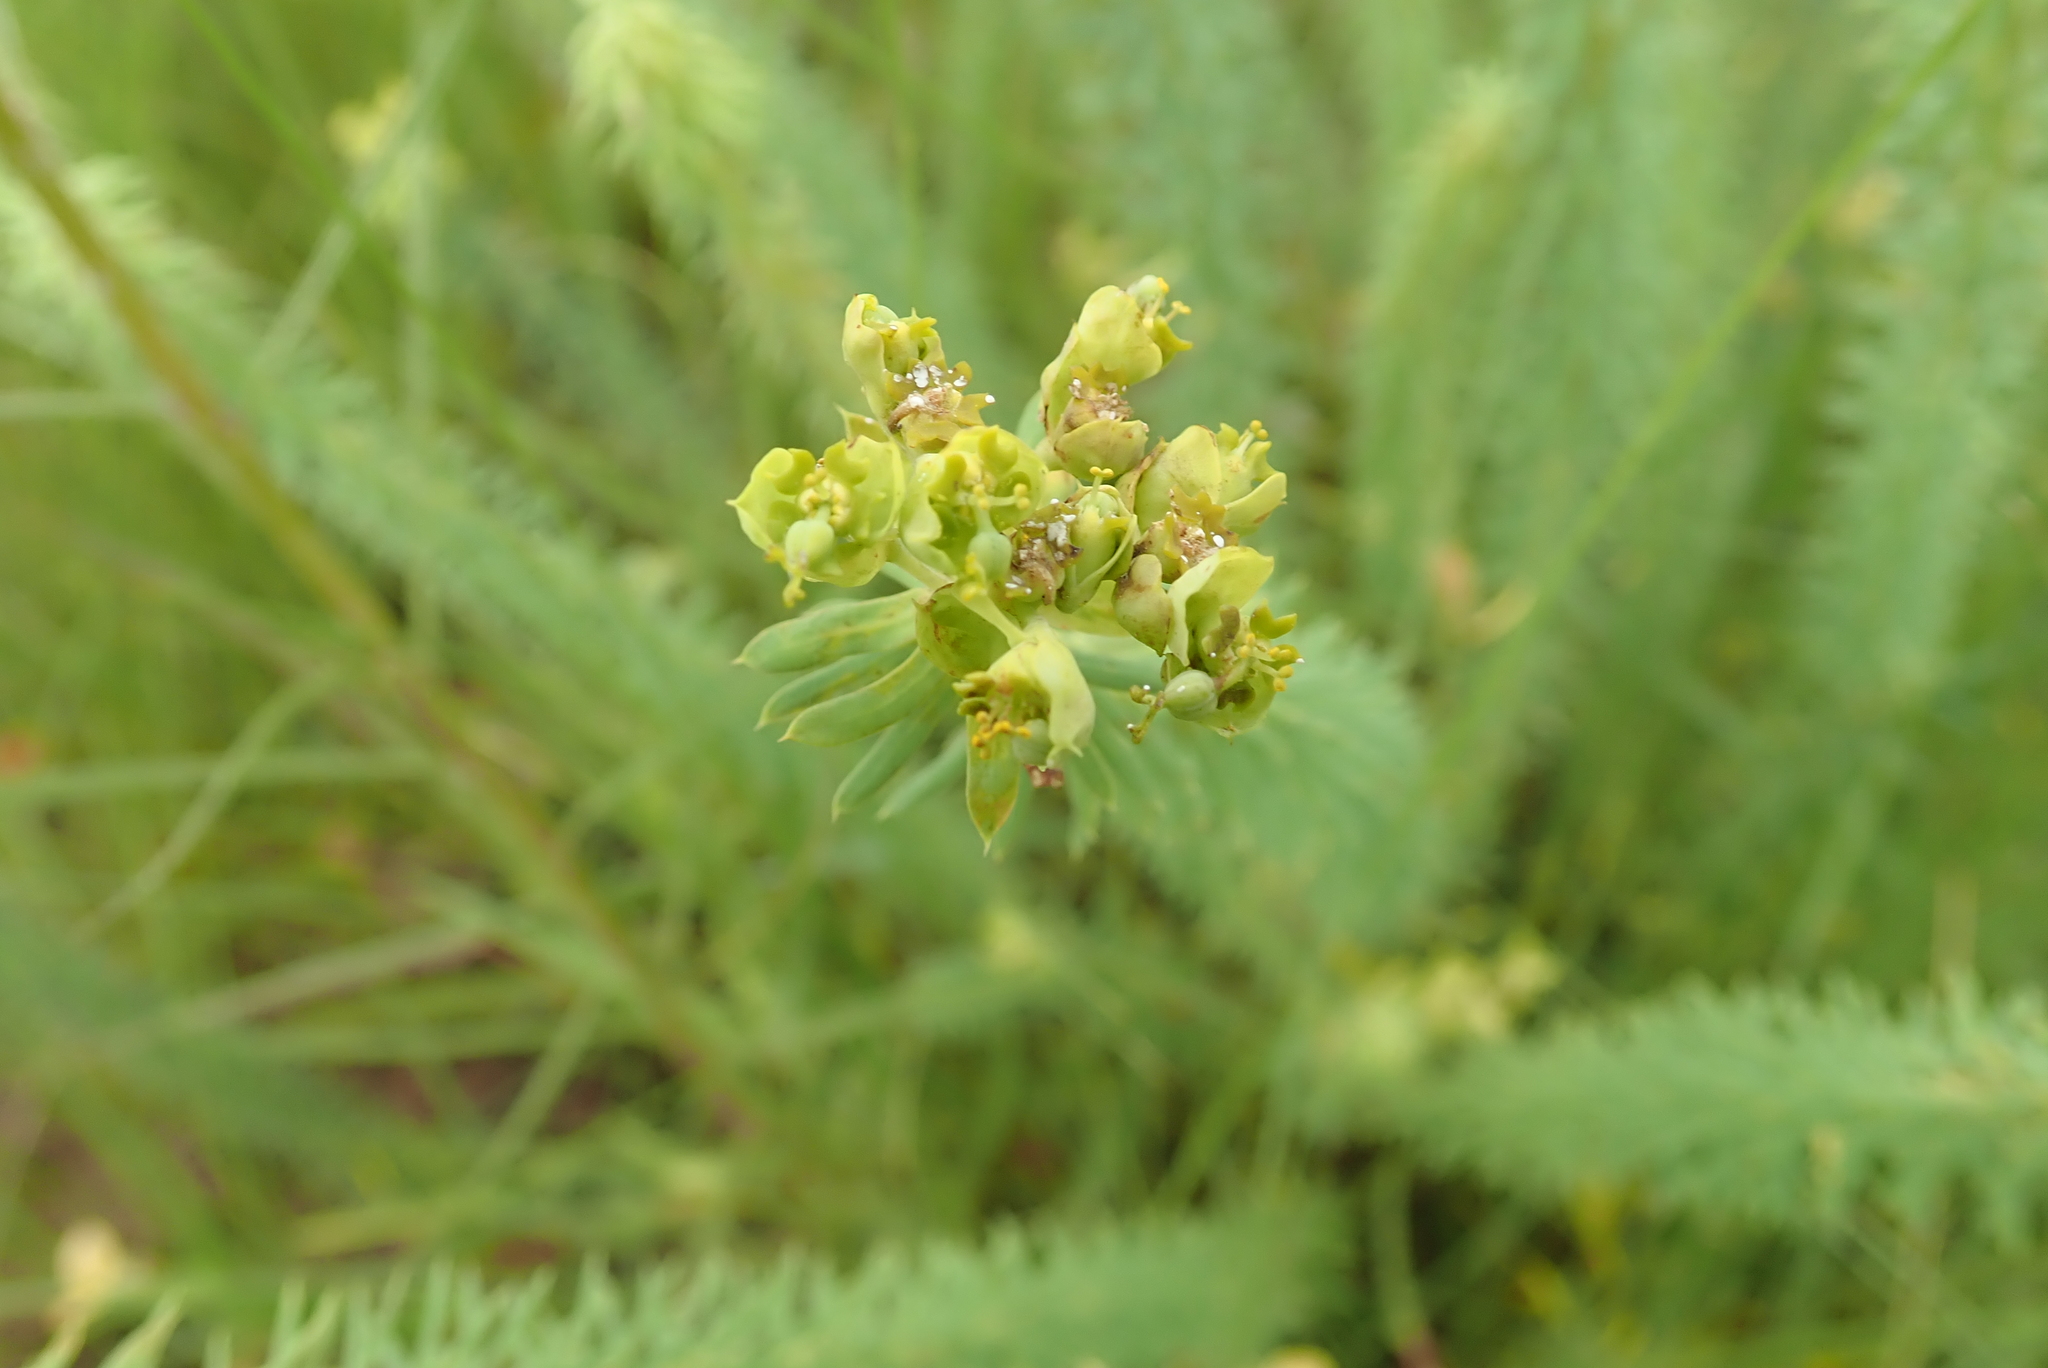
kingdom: Plantae
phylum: Tracheophyta
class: Magnoliopsida
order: Malpighiales
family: Euphorbiaceae
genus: Euphorbia
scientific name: Euphorbia natalensis
